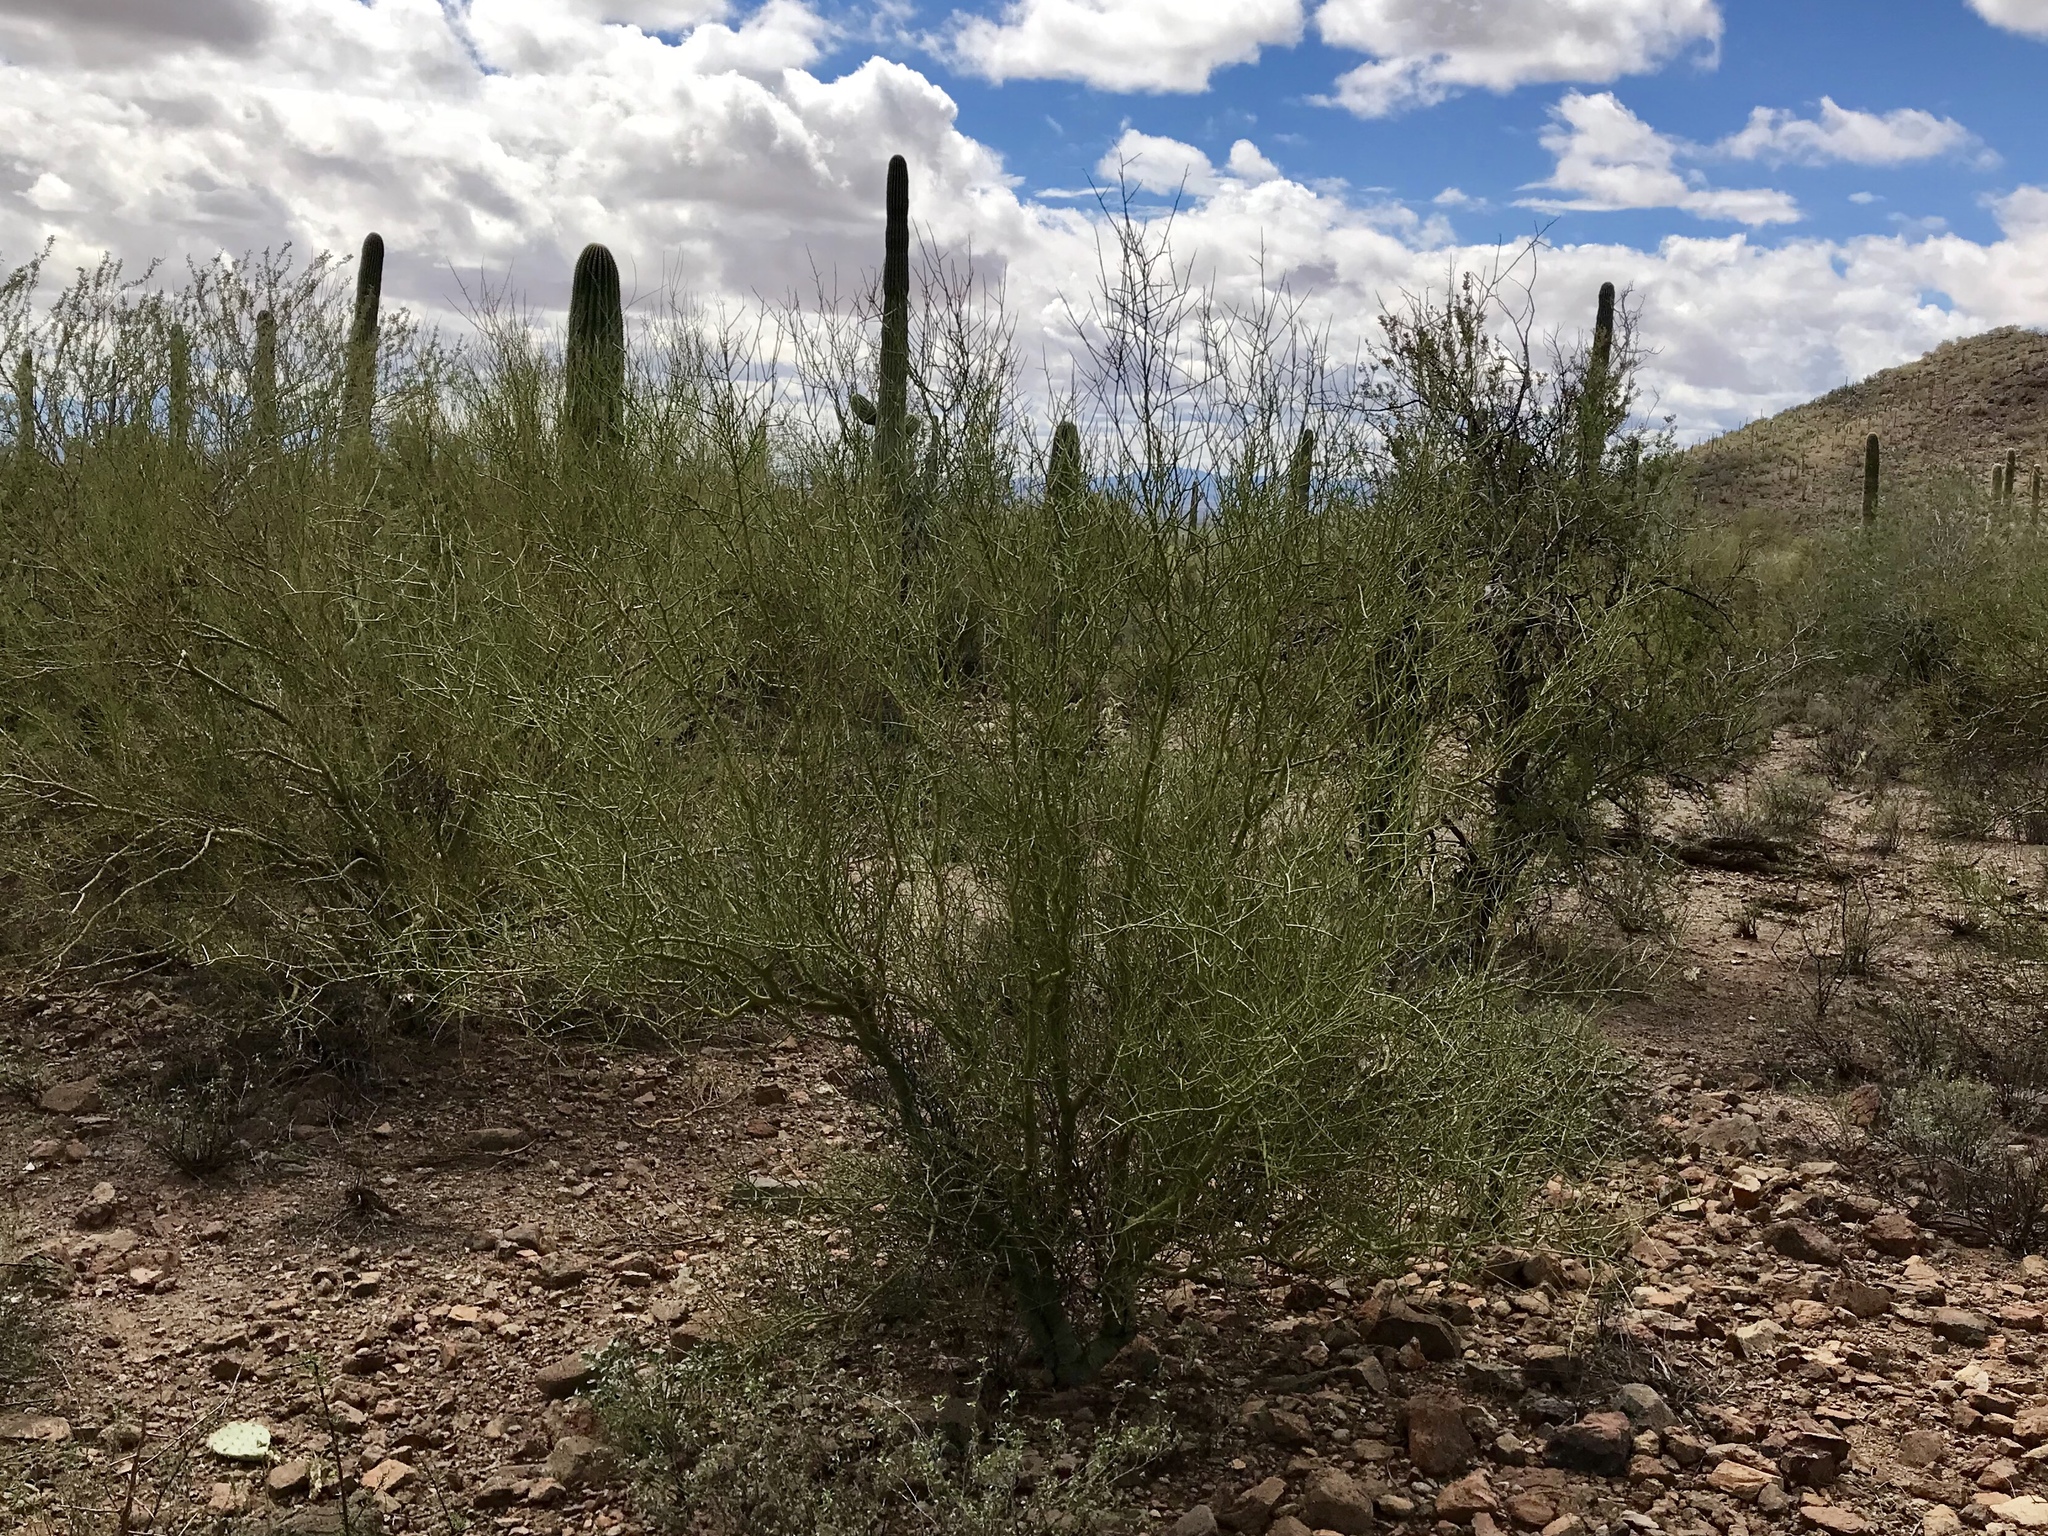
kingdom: Plantae
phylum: Tracheophyta
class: Magnoliopsida
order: Fabales
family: Fabaceae
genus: Parkinsonia
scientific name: Parkinsonia microphylla
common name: Yellow paloverde
